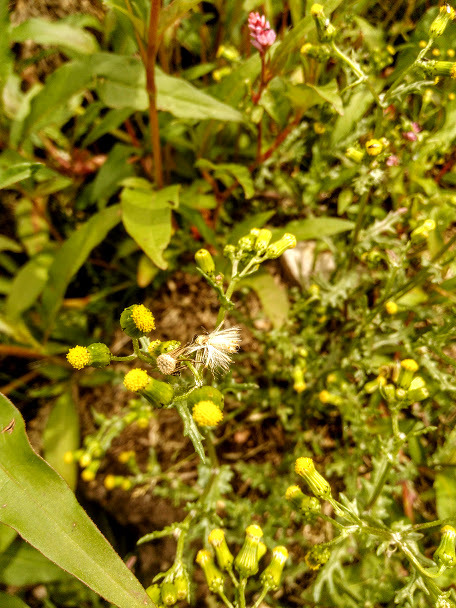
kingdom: Plantae
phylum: Tracheophyta
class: Magnoliopsida
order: Asterales
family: Asteraceae
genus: Senecio
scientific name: Senecio vulgaris
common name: Old-man-in-the-spring
